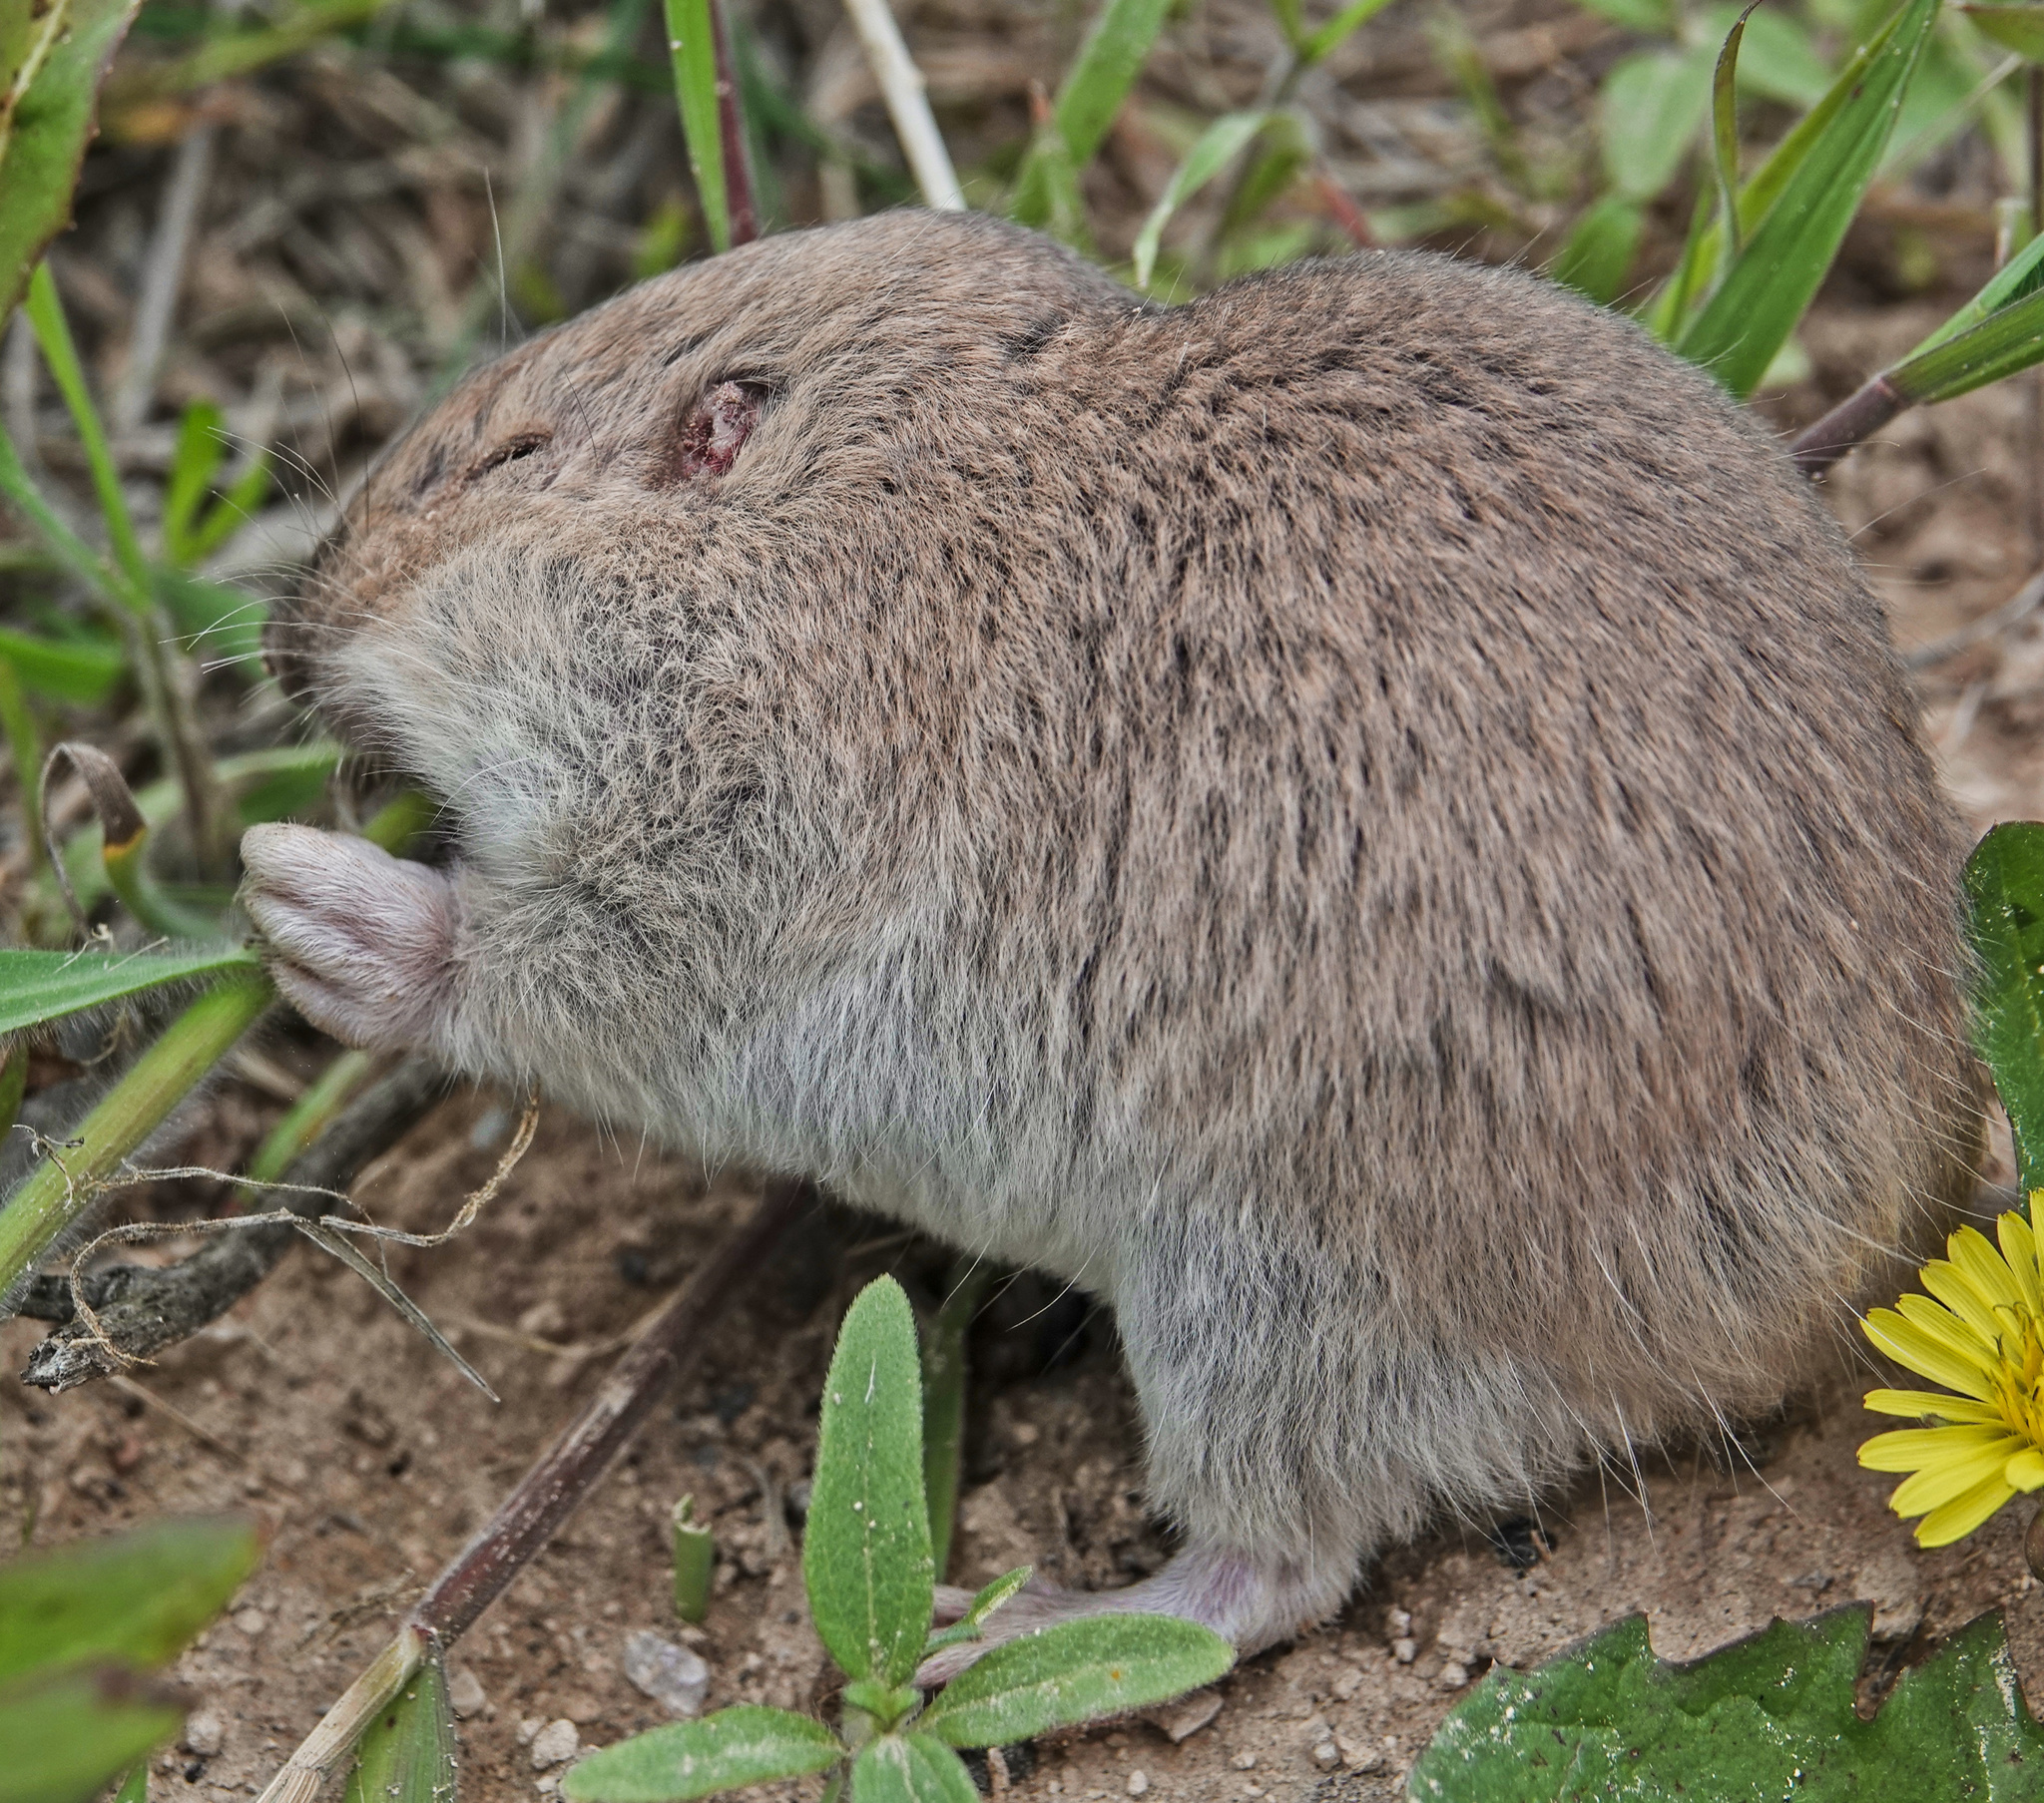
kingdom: Animalia
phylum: Chordata
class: Mammalia
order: Rodentia
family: Geomyidae
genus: Geomys
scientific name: Geomys bursarius
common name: Plains pocket gopher
